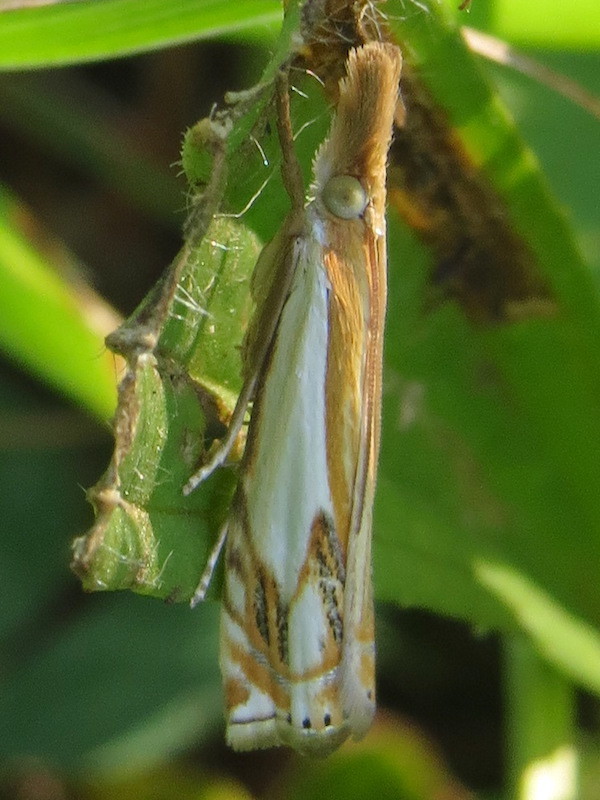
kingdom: Animalia
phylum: Arthropoda
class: Insecta
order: Lepidoptera
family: Crambidae
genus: Crambus
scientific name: Crambus agitatellus
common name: Double-banded grass-veneer
